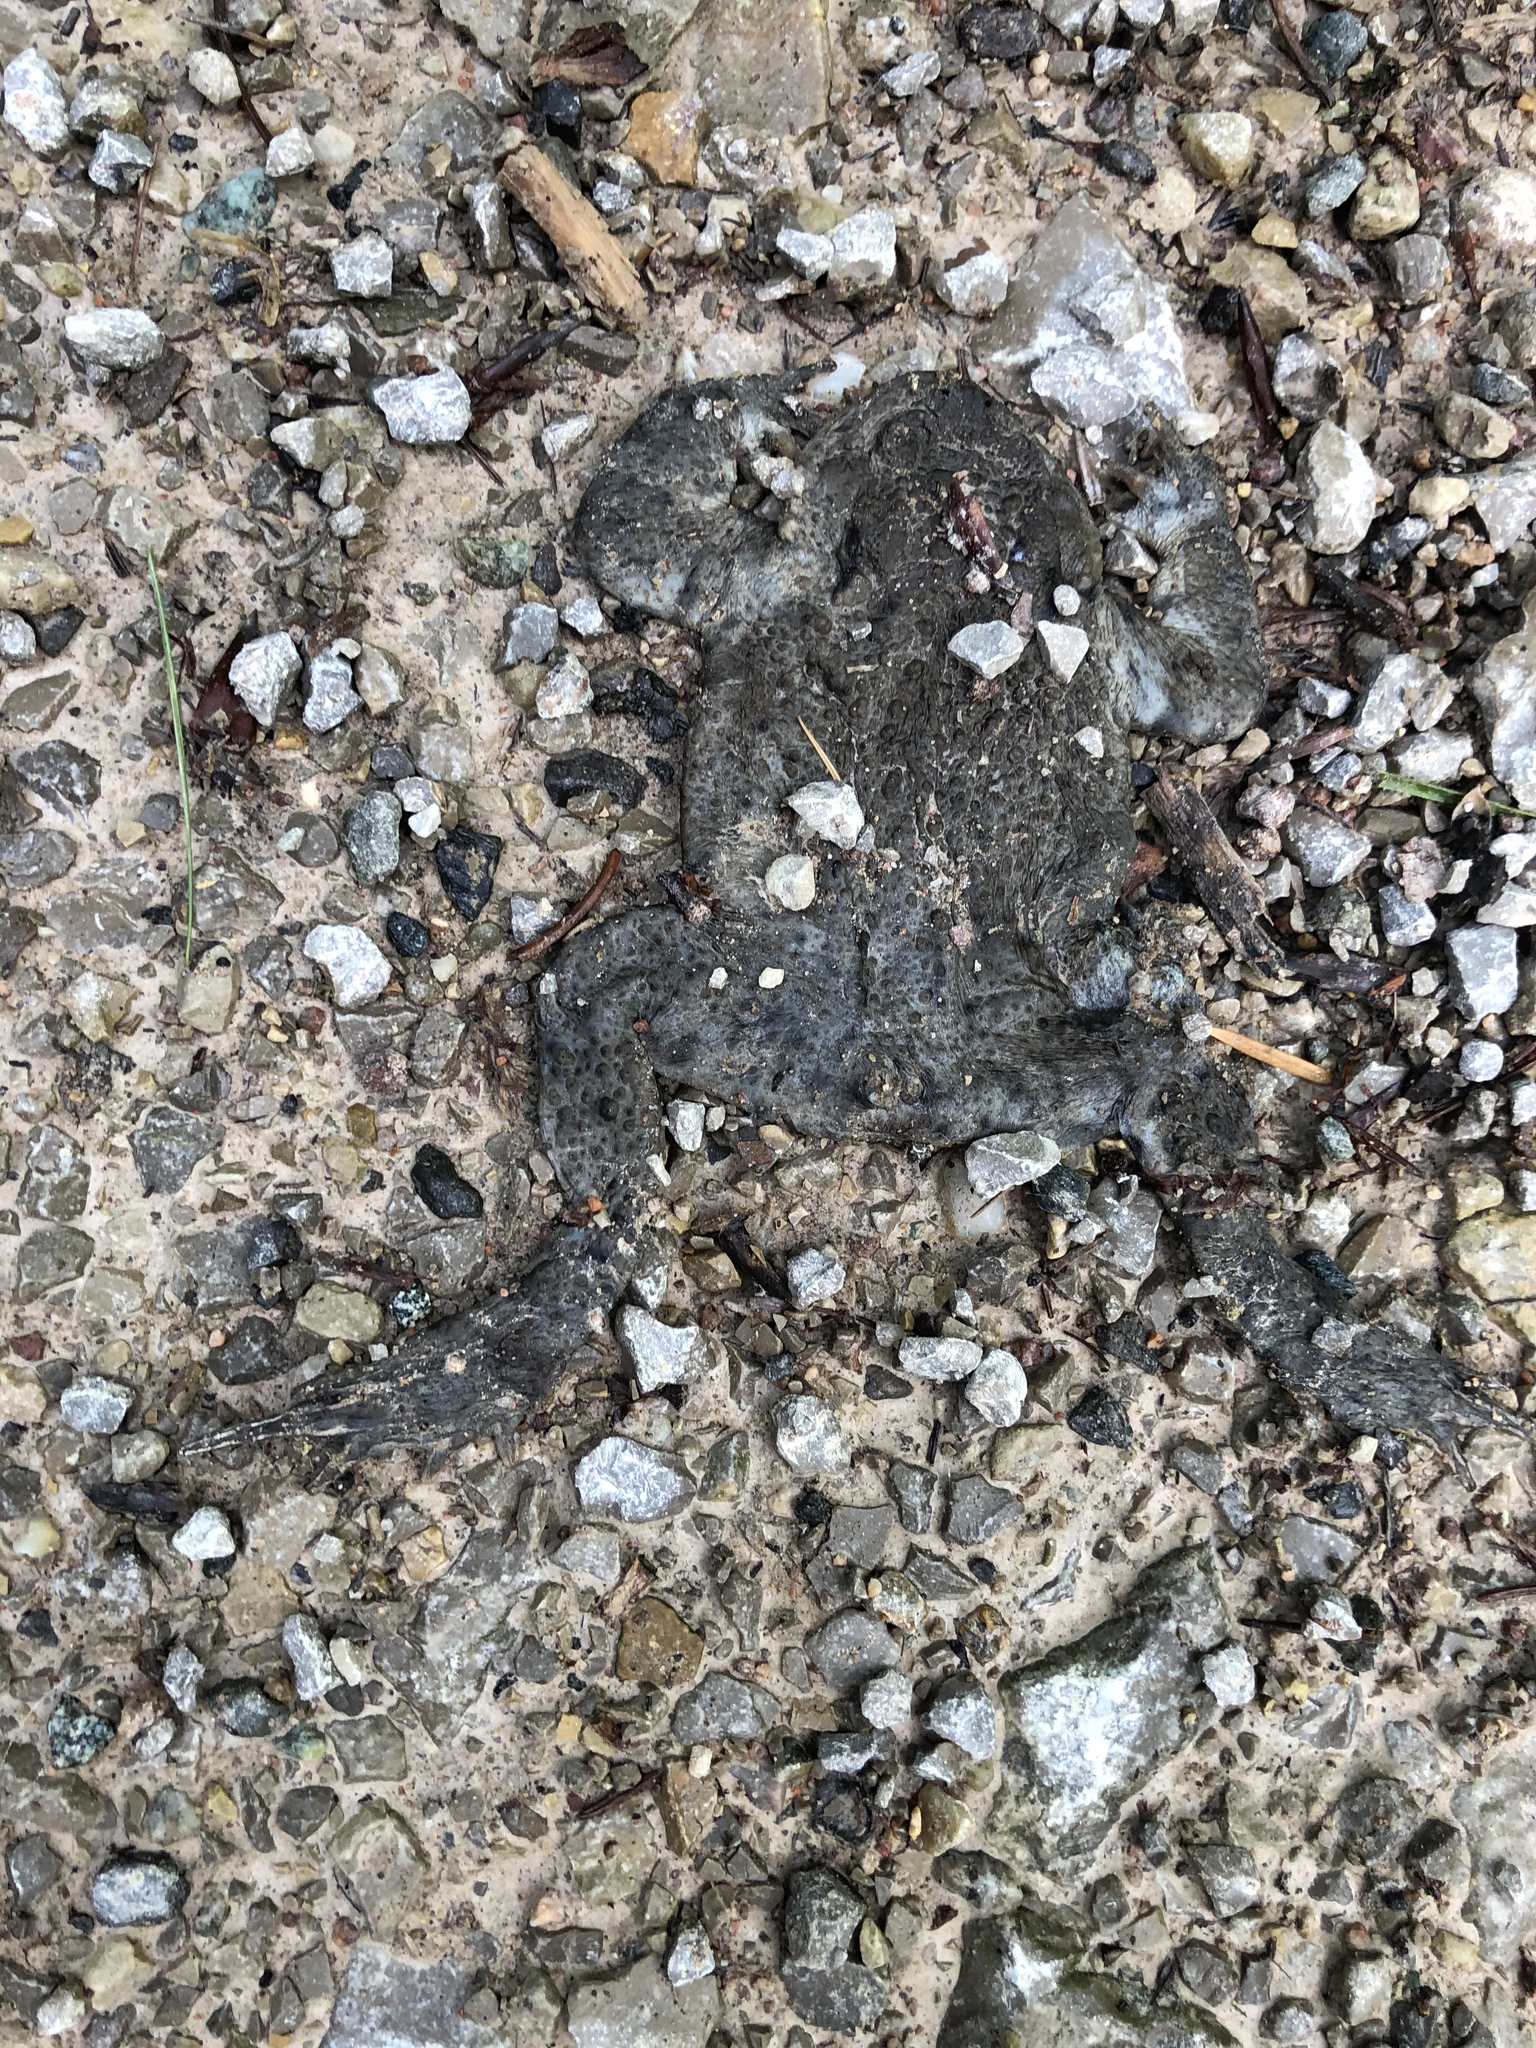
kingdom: Animalia
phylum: Chordata
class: Amphibia
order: Anura
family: Bufonidae
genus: Bufo
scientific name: Bufo bufo
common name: Common toad
